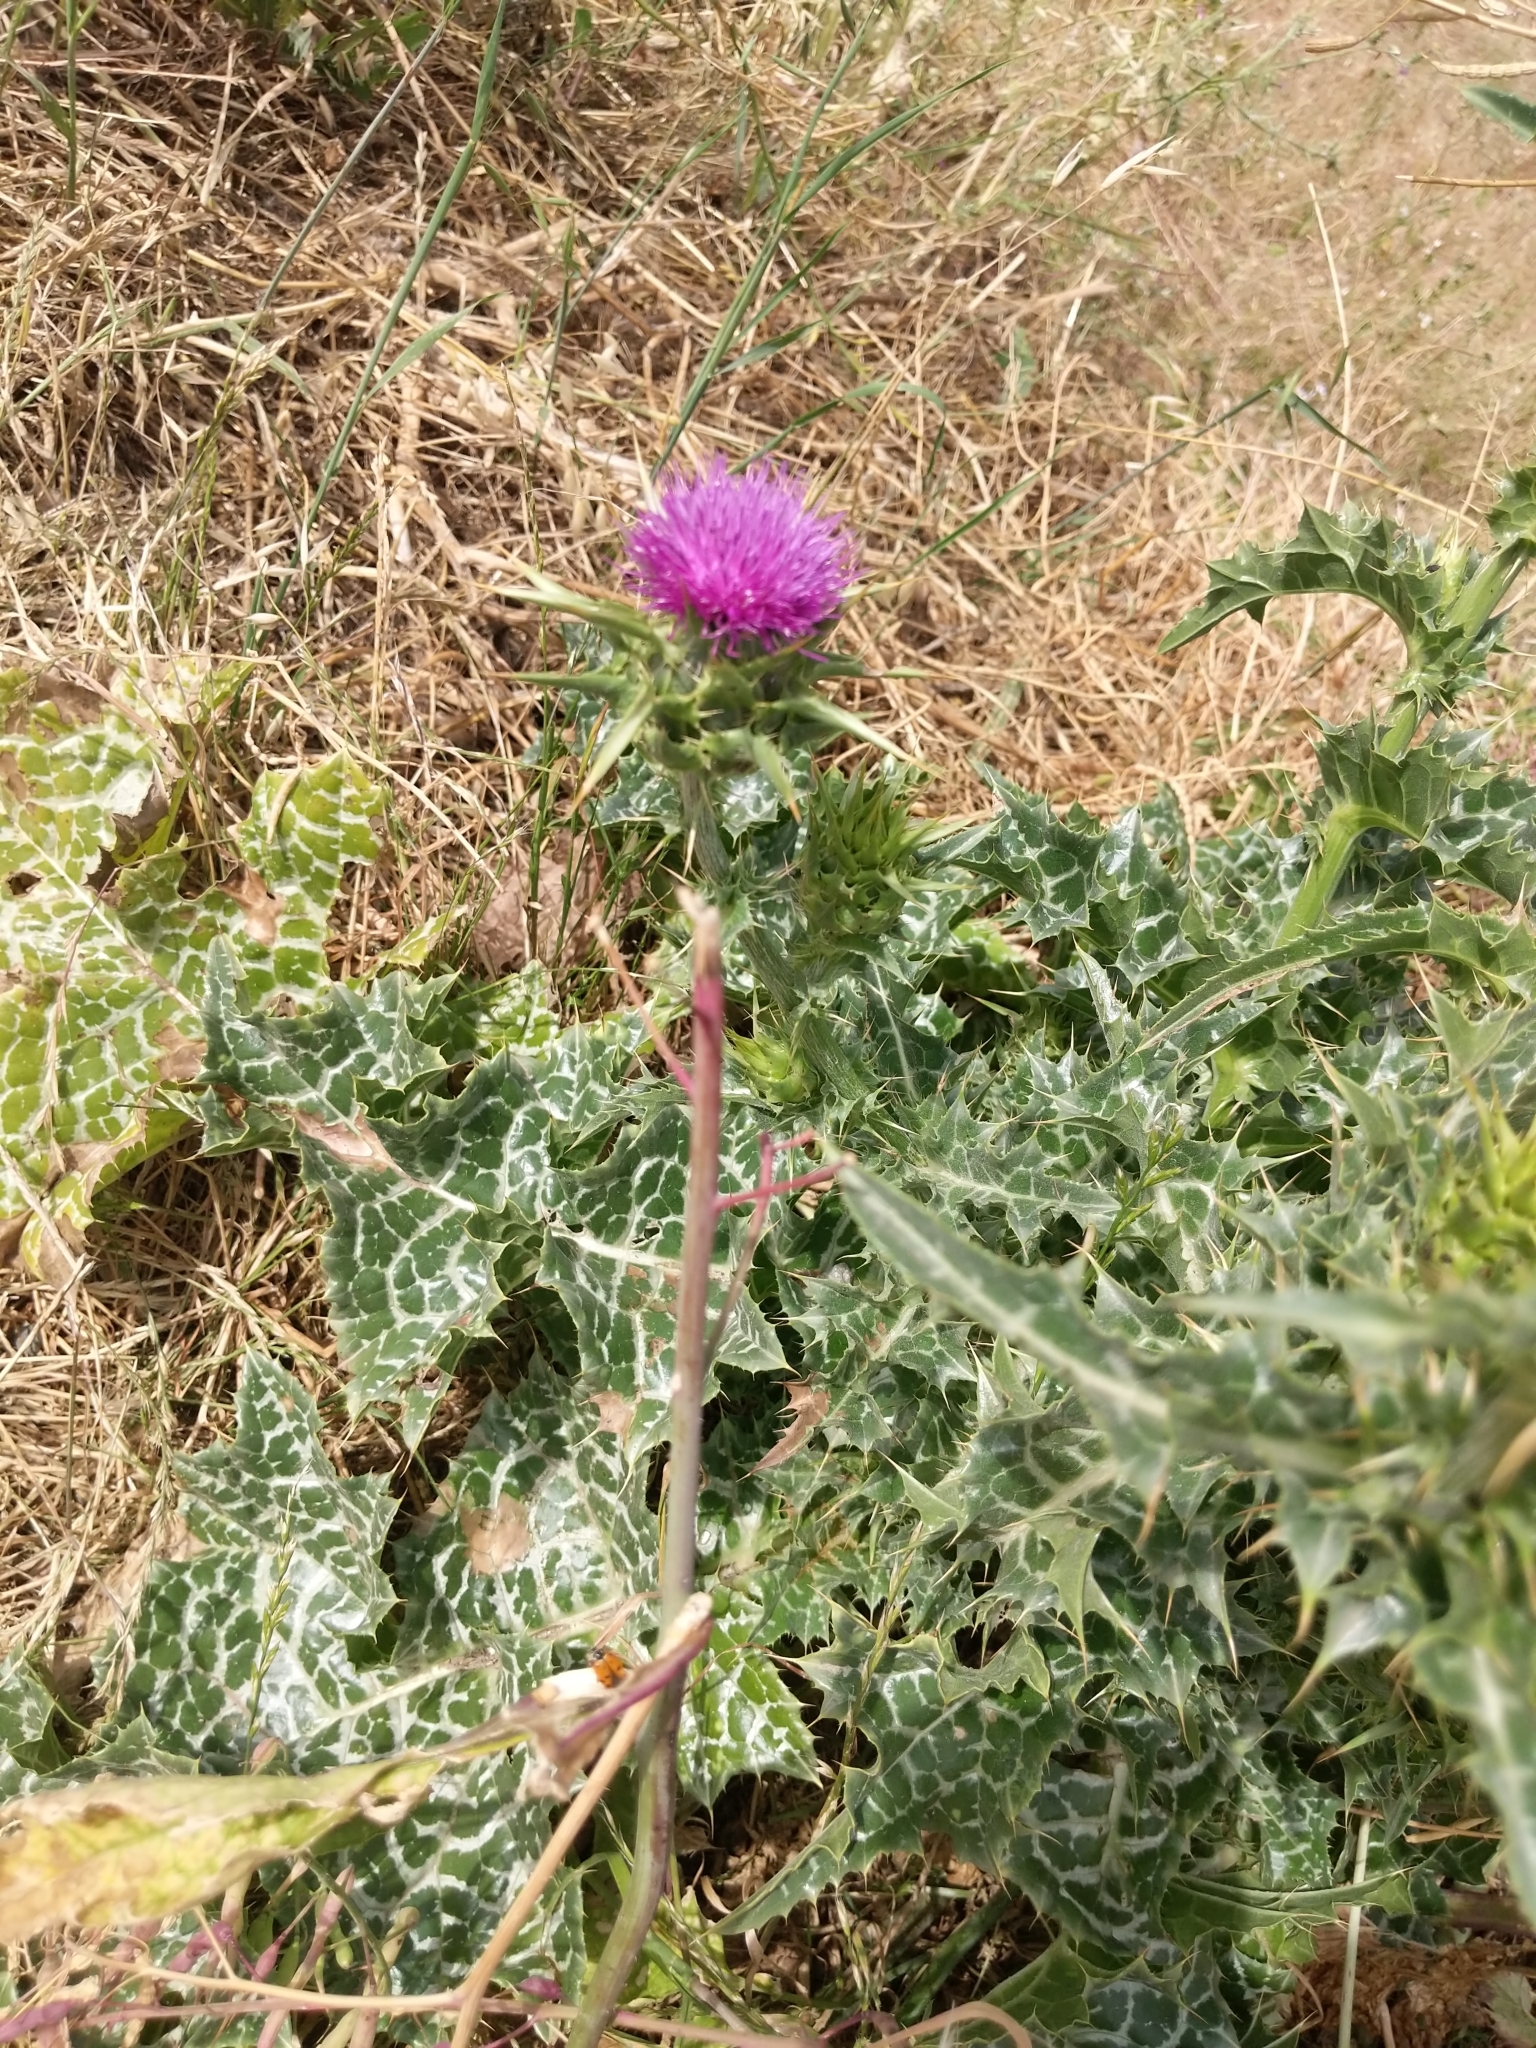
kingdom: Plantae
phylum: Tracheophyta
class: Magnoliopsida
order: Asterales
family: Asteraceae
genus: Silybum
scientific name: Silybum marianum
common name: Milk thistle
